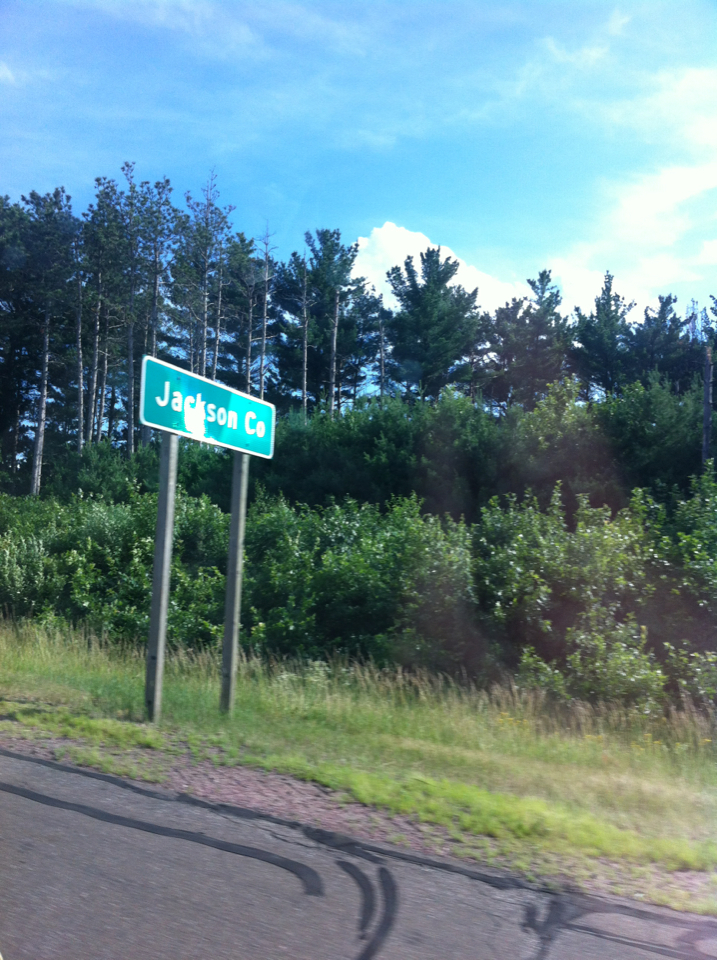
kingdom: Plantae
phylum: Tracheophyta
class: Pinopsida
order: Pinales
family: Pinaceae
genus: Pinus
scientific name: Pinus resinosa
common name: Norway pine
